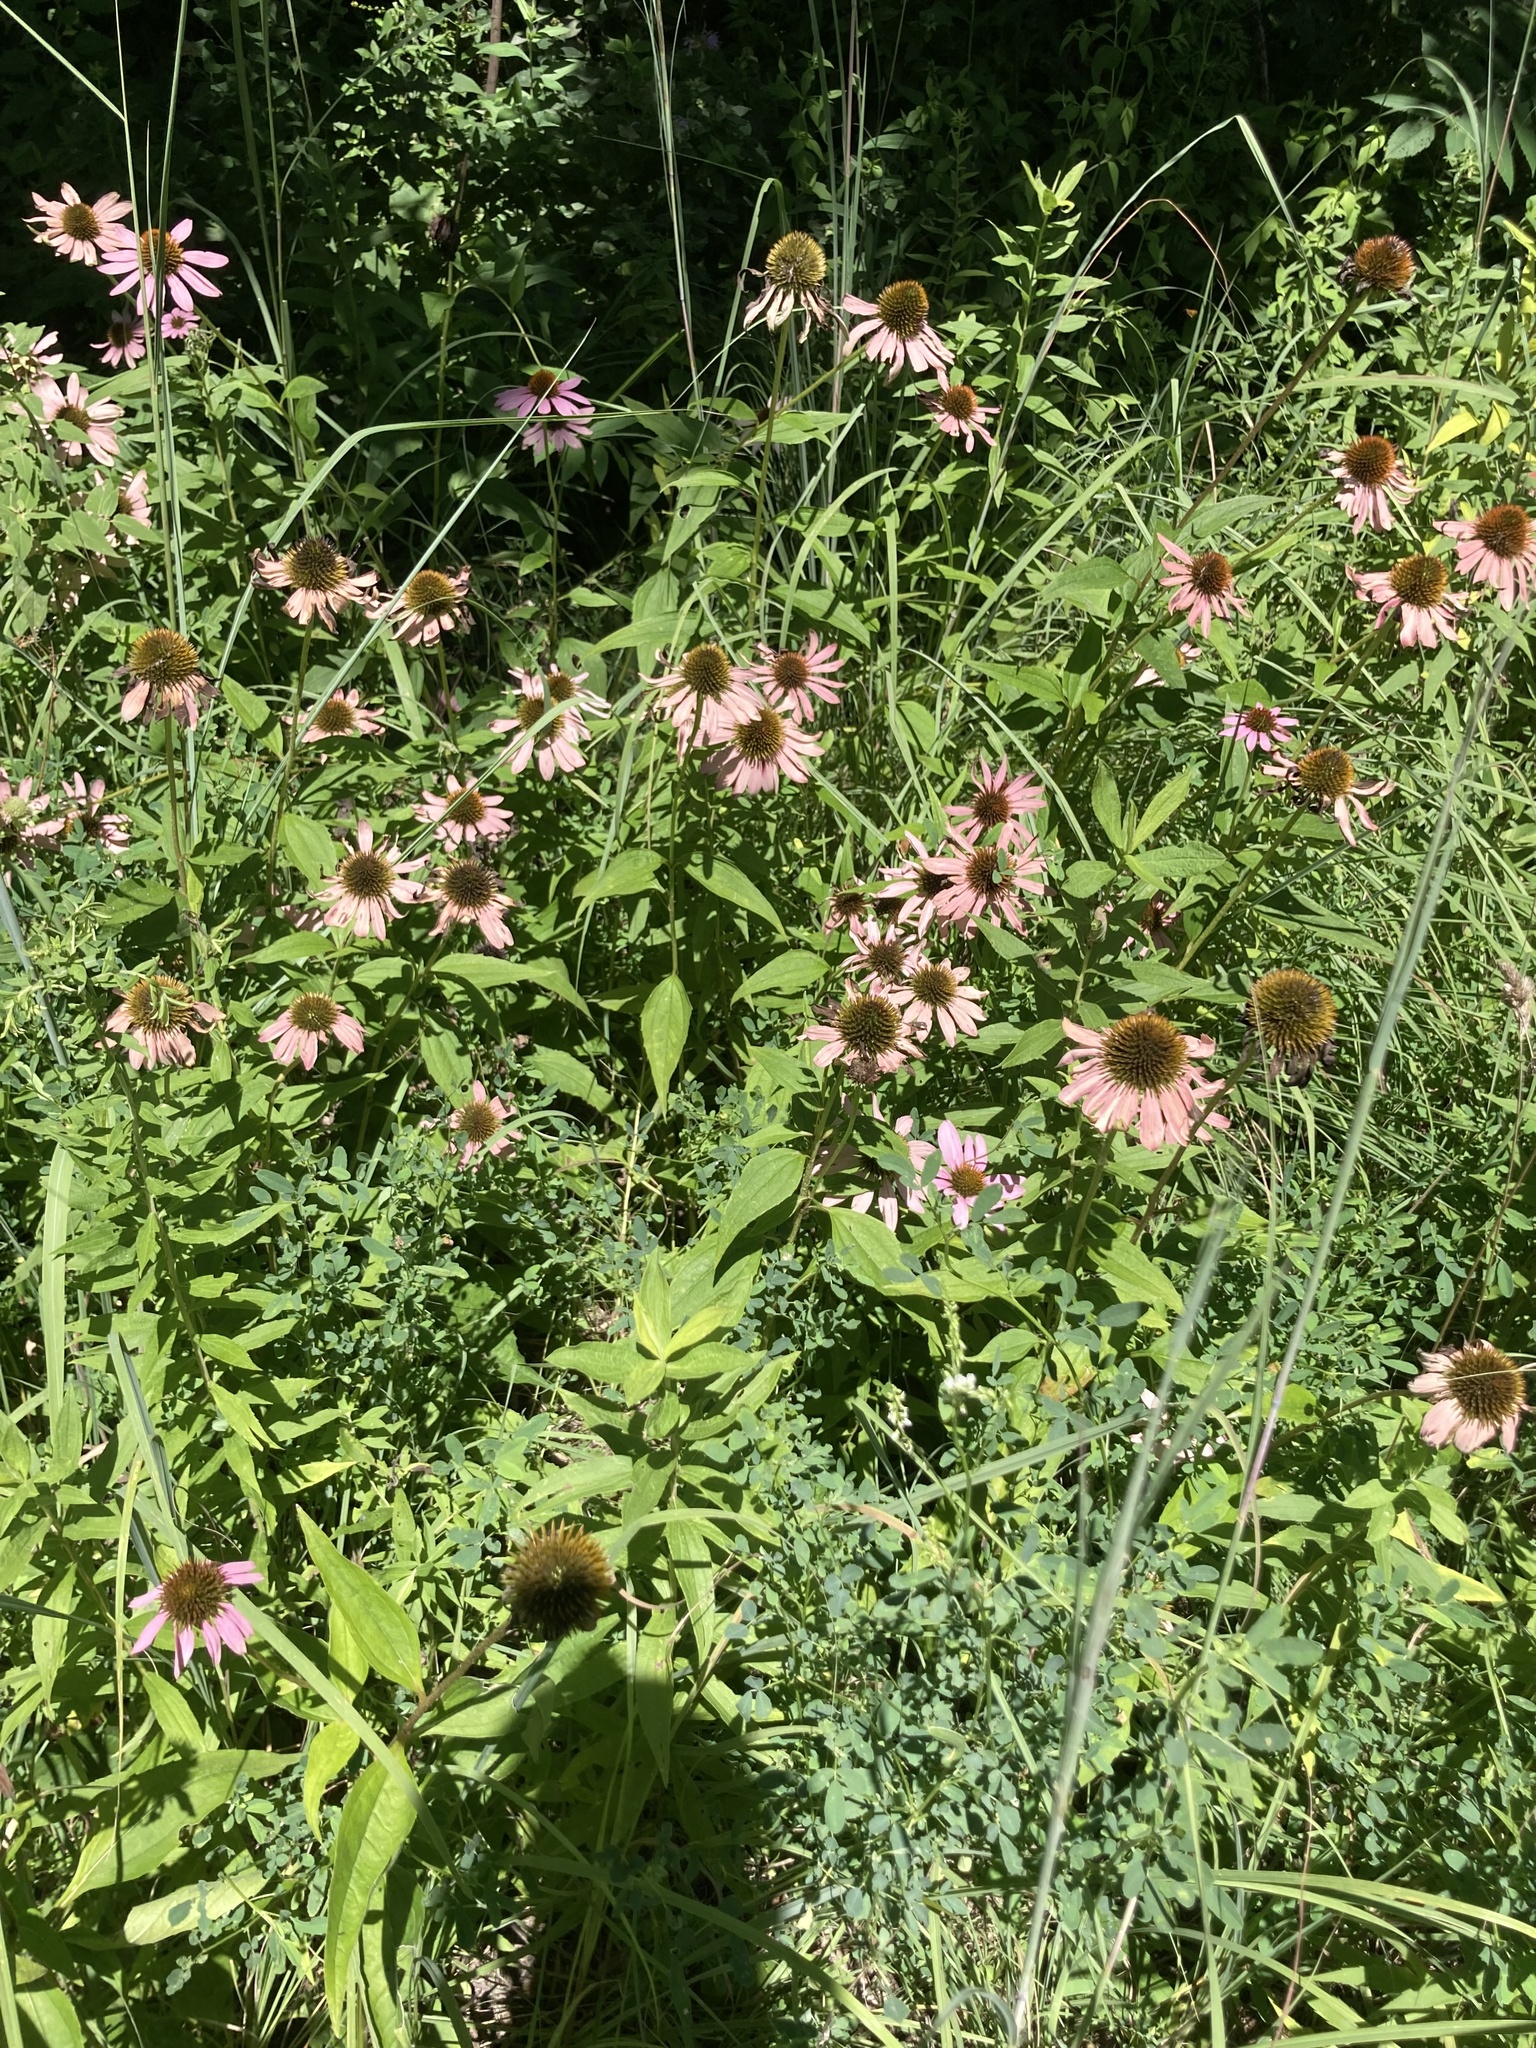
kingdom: Plantae
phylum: Tracheophyta
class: Magnoliopsida
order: Asterales
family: Asteraceae
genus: Echinacea
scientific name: Echinacea purpurea
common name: Broad-leaved purple coneflower
